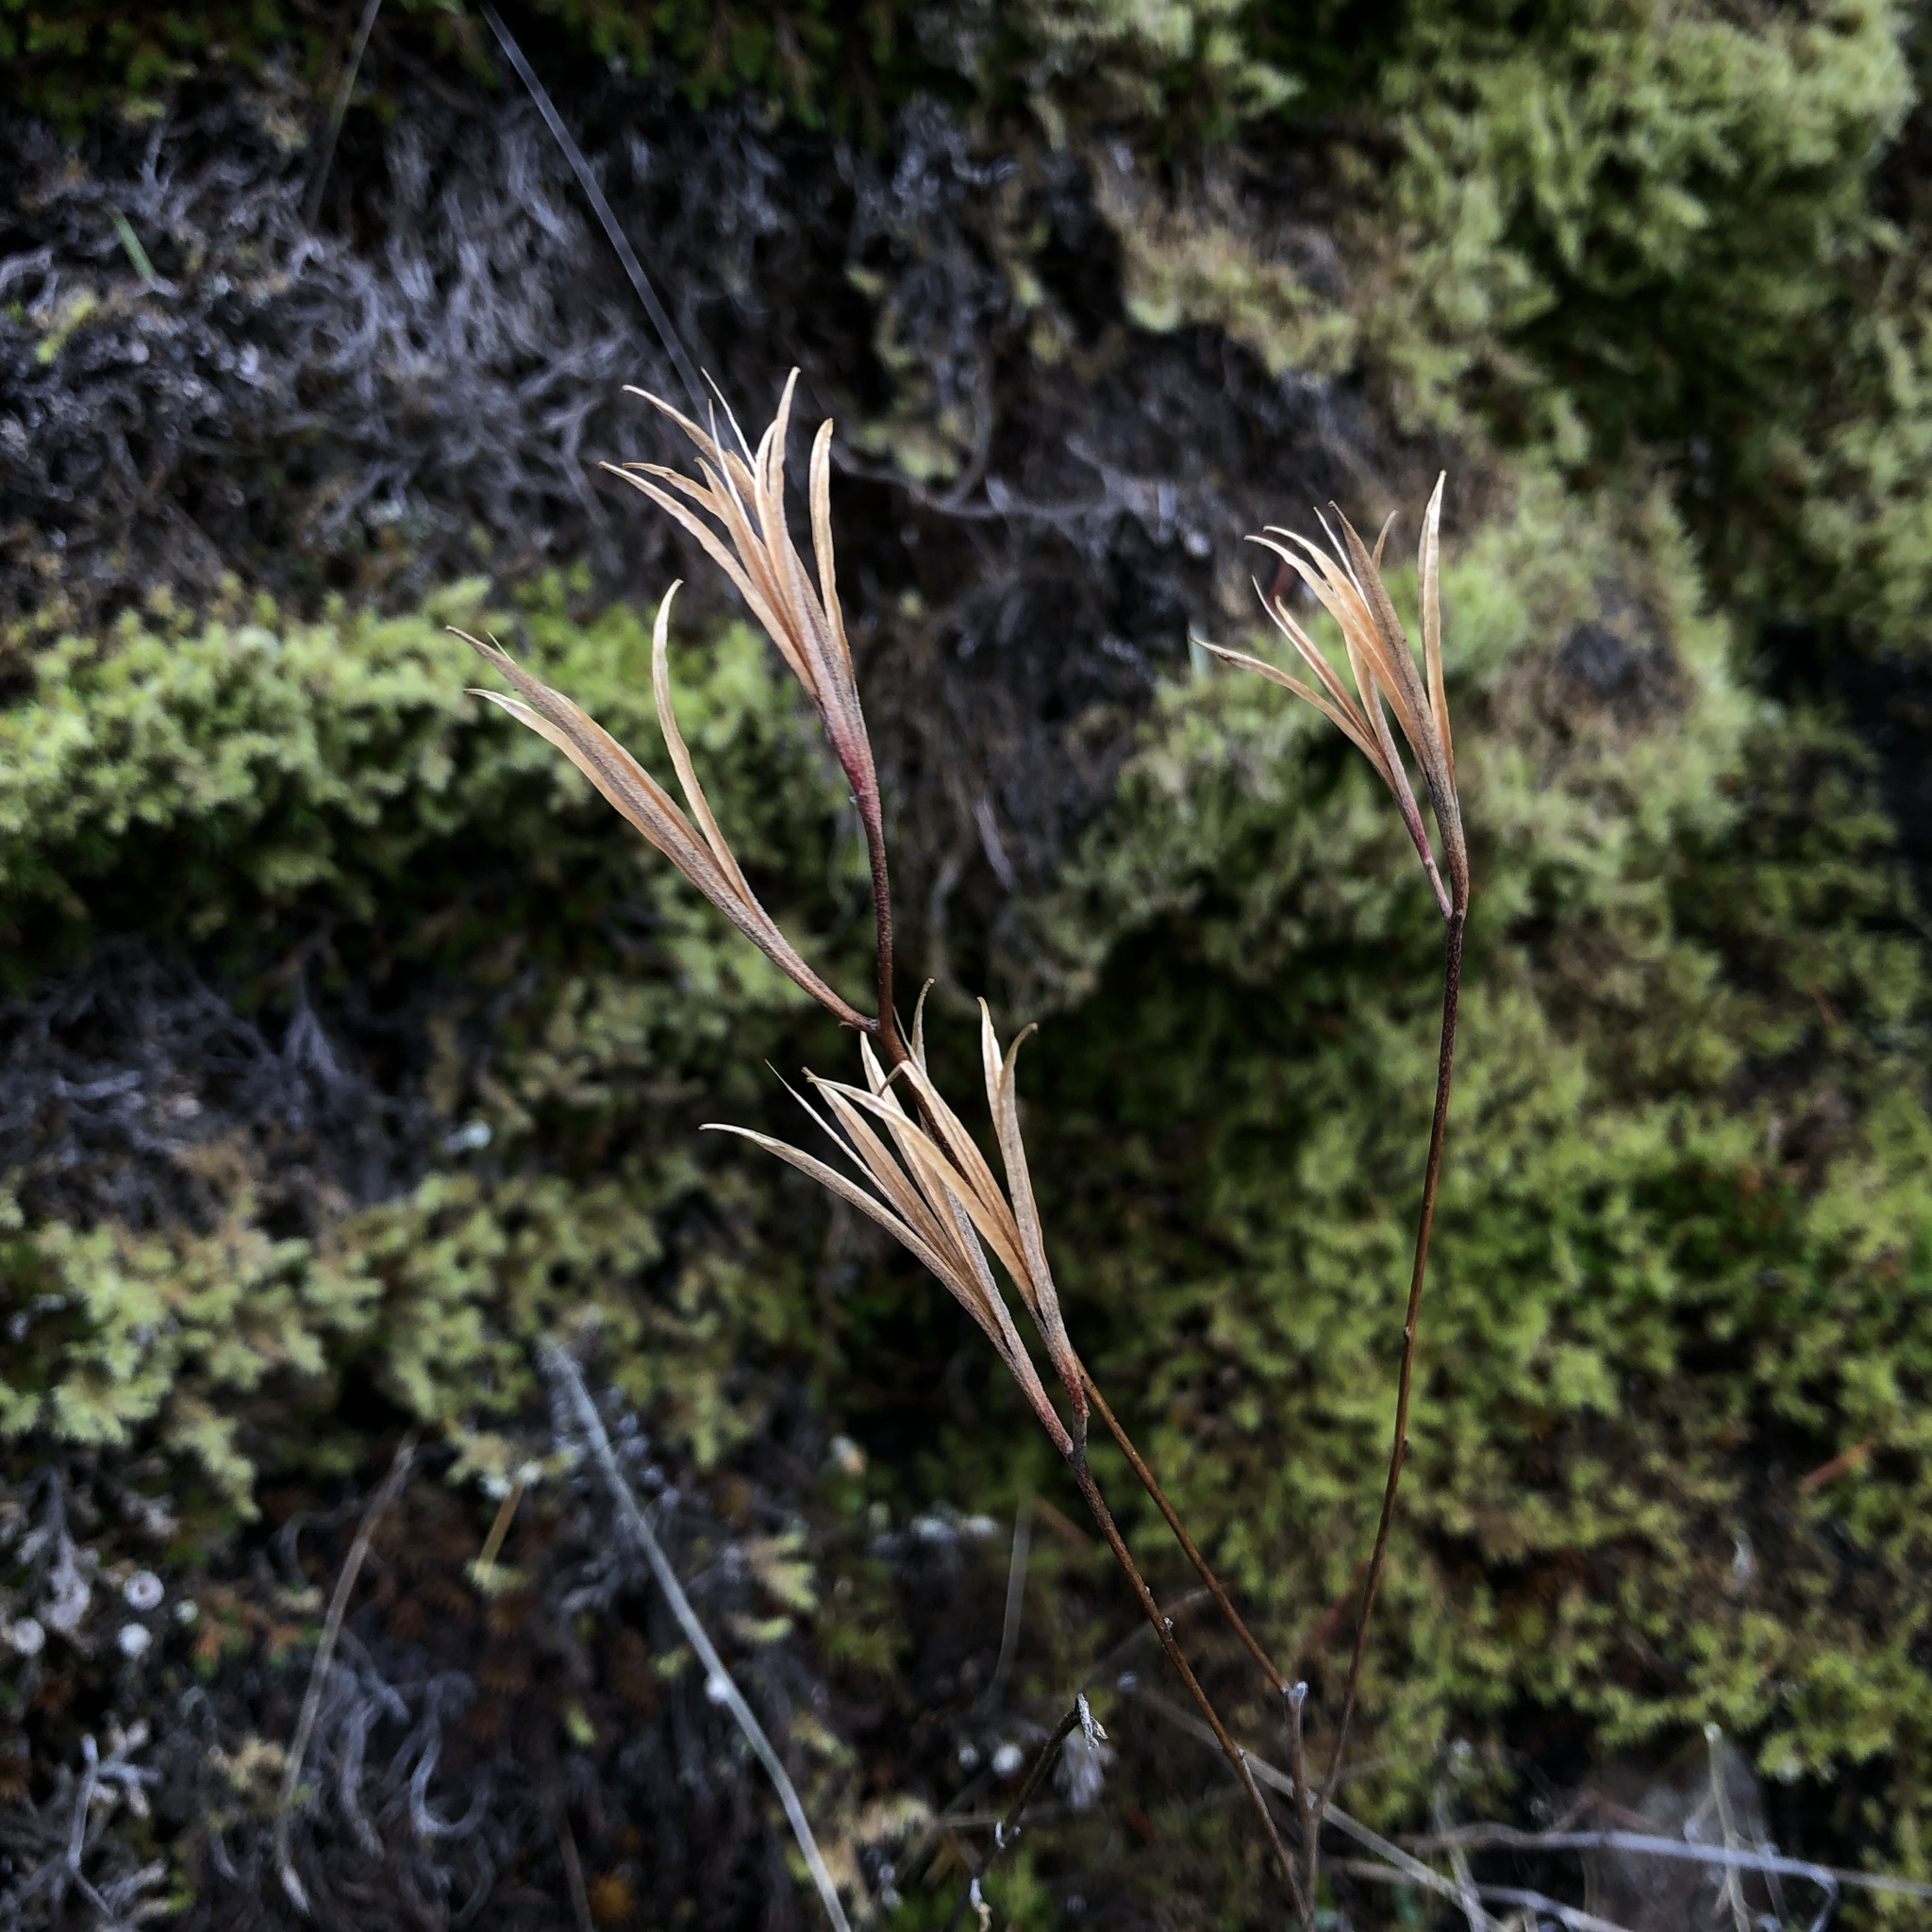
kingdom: Plantae
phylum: Tracheophyta
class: Magnoliopsida
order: Myrtales
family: Onagraceae
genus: Clarkia
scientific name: Clarkia amoena
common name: Godetia
